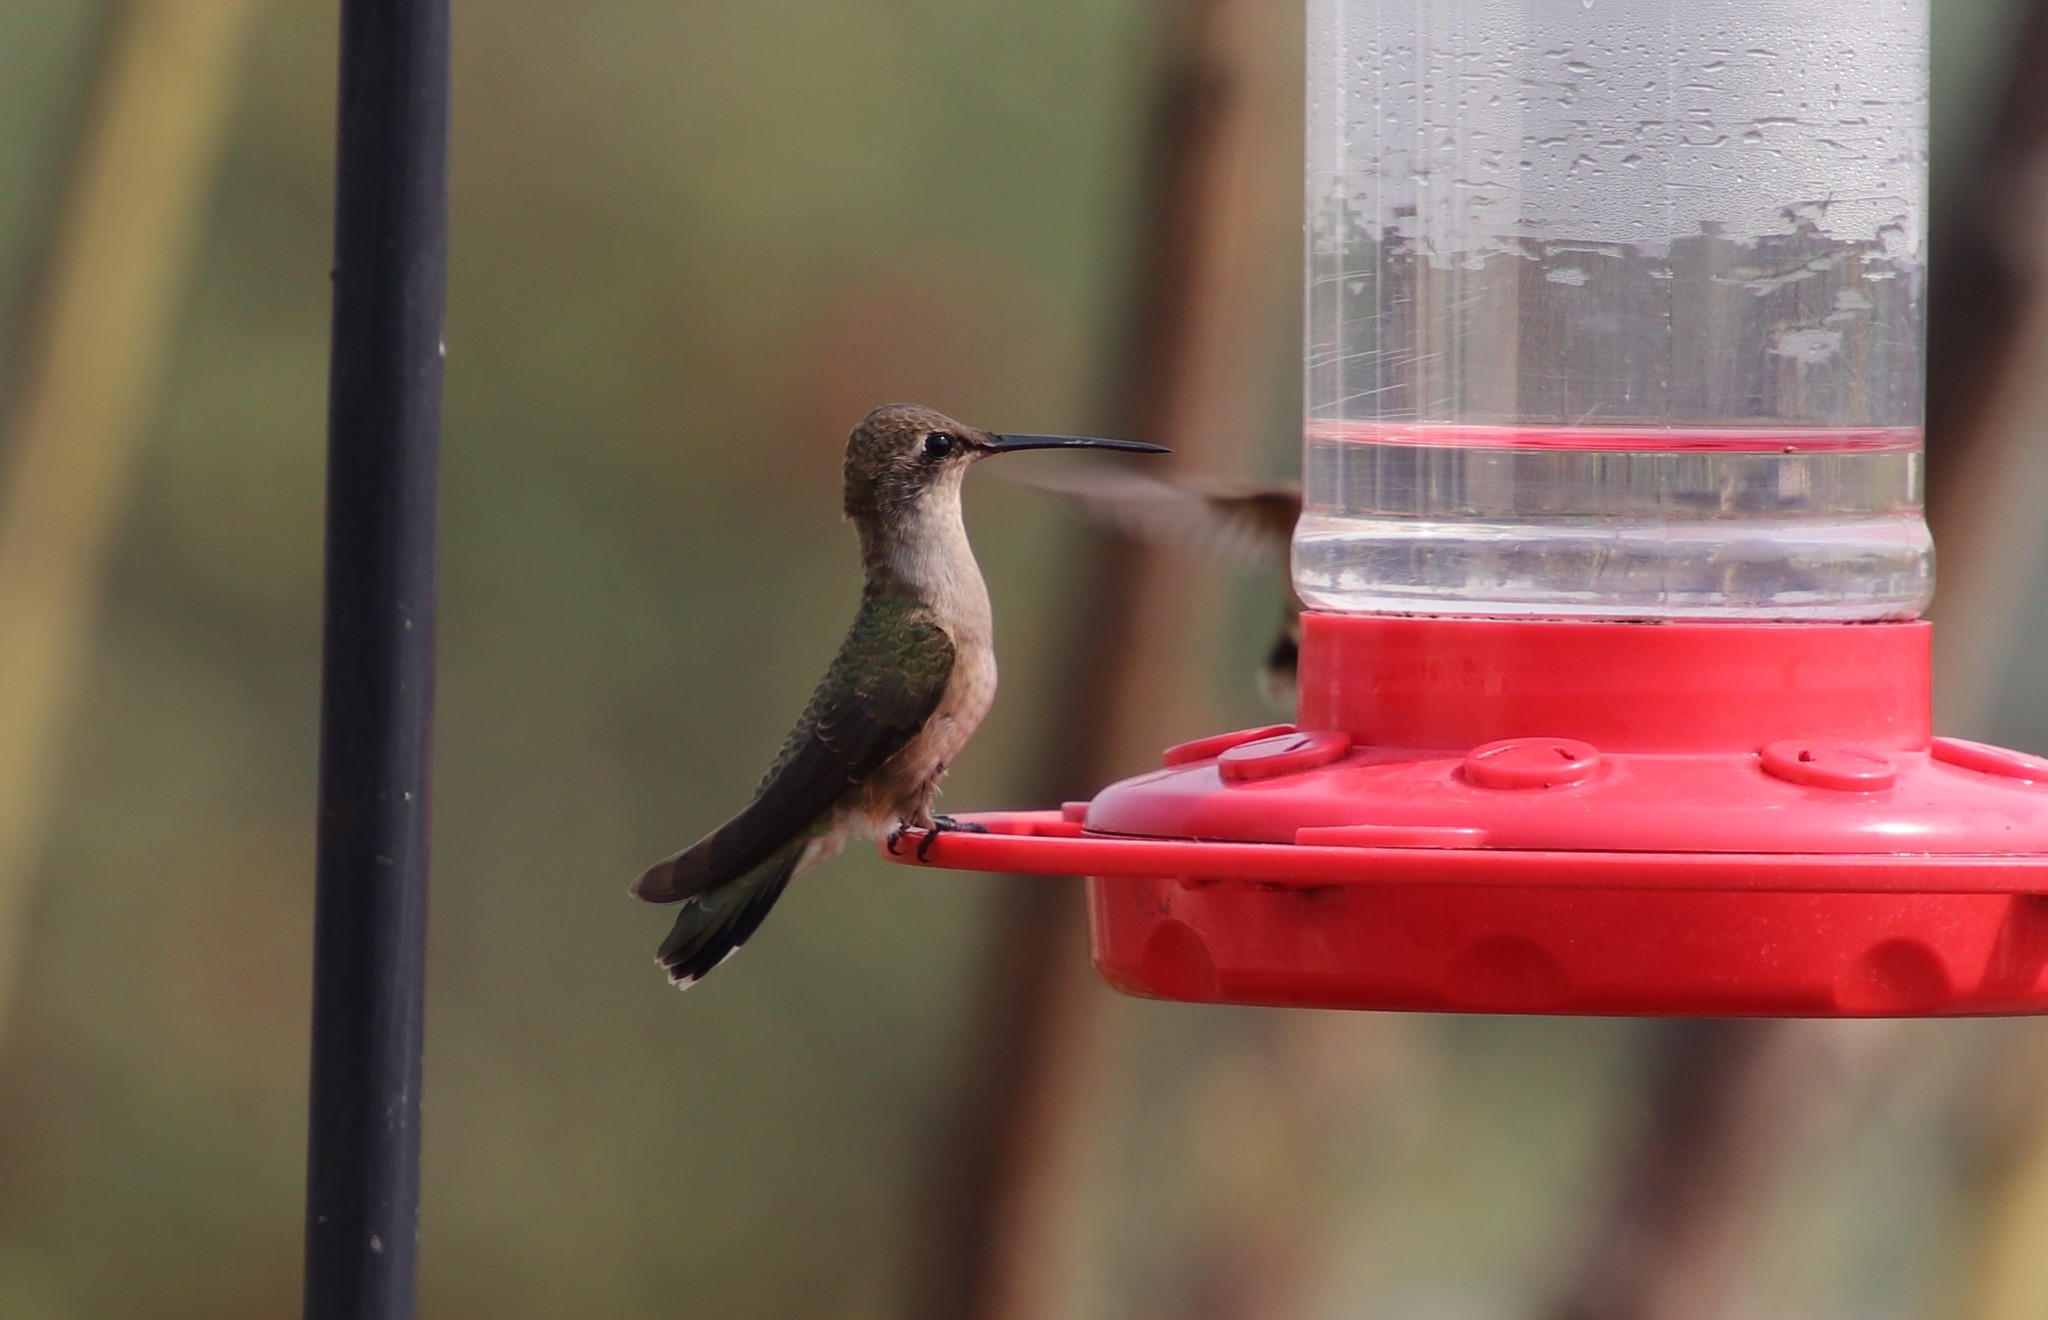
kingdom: Animalia
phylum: Chordata
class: Aves
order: Apodiformes
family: Trochilidae
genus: Archilochus
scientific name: Archilochus alexandri
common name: Black-chinned hummingbird
